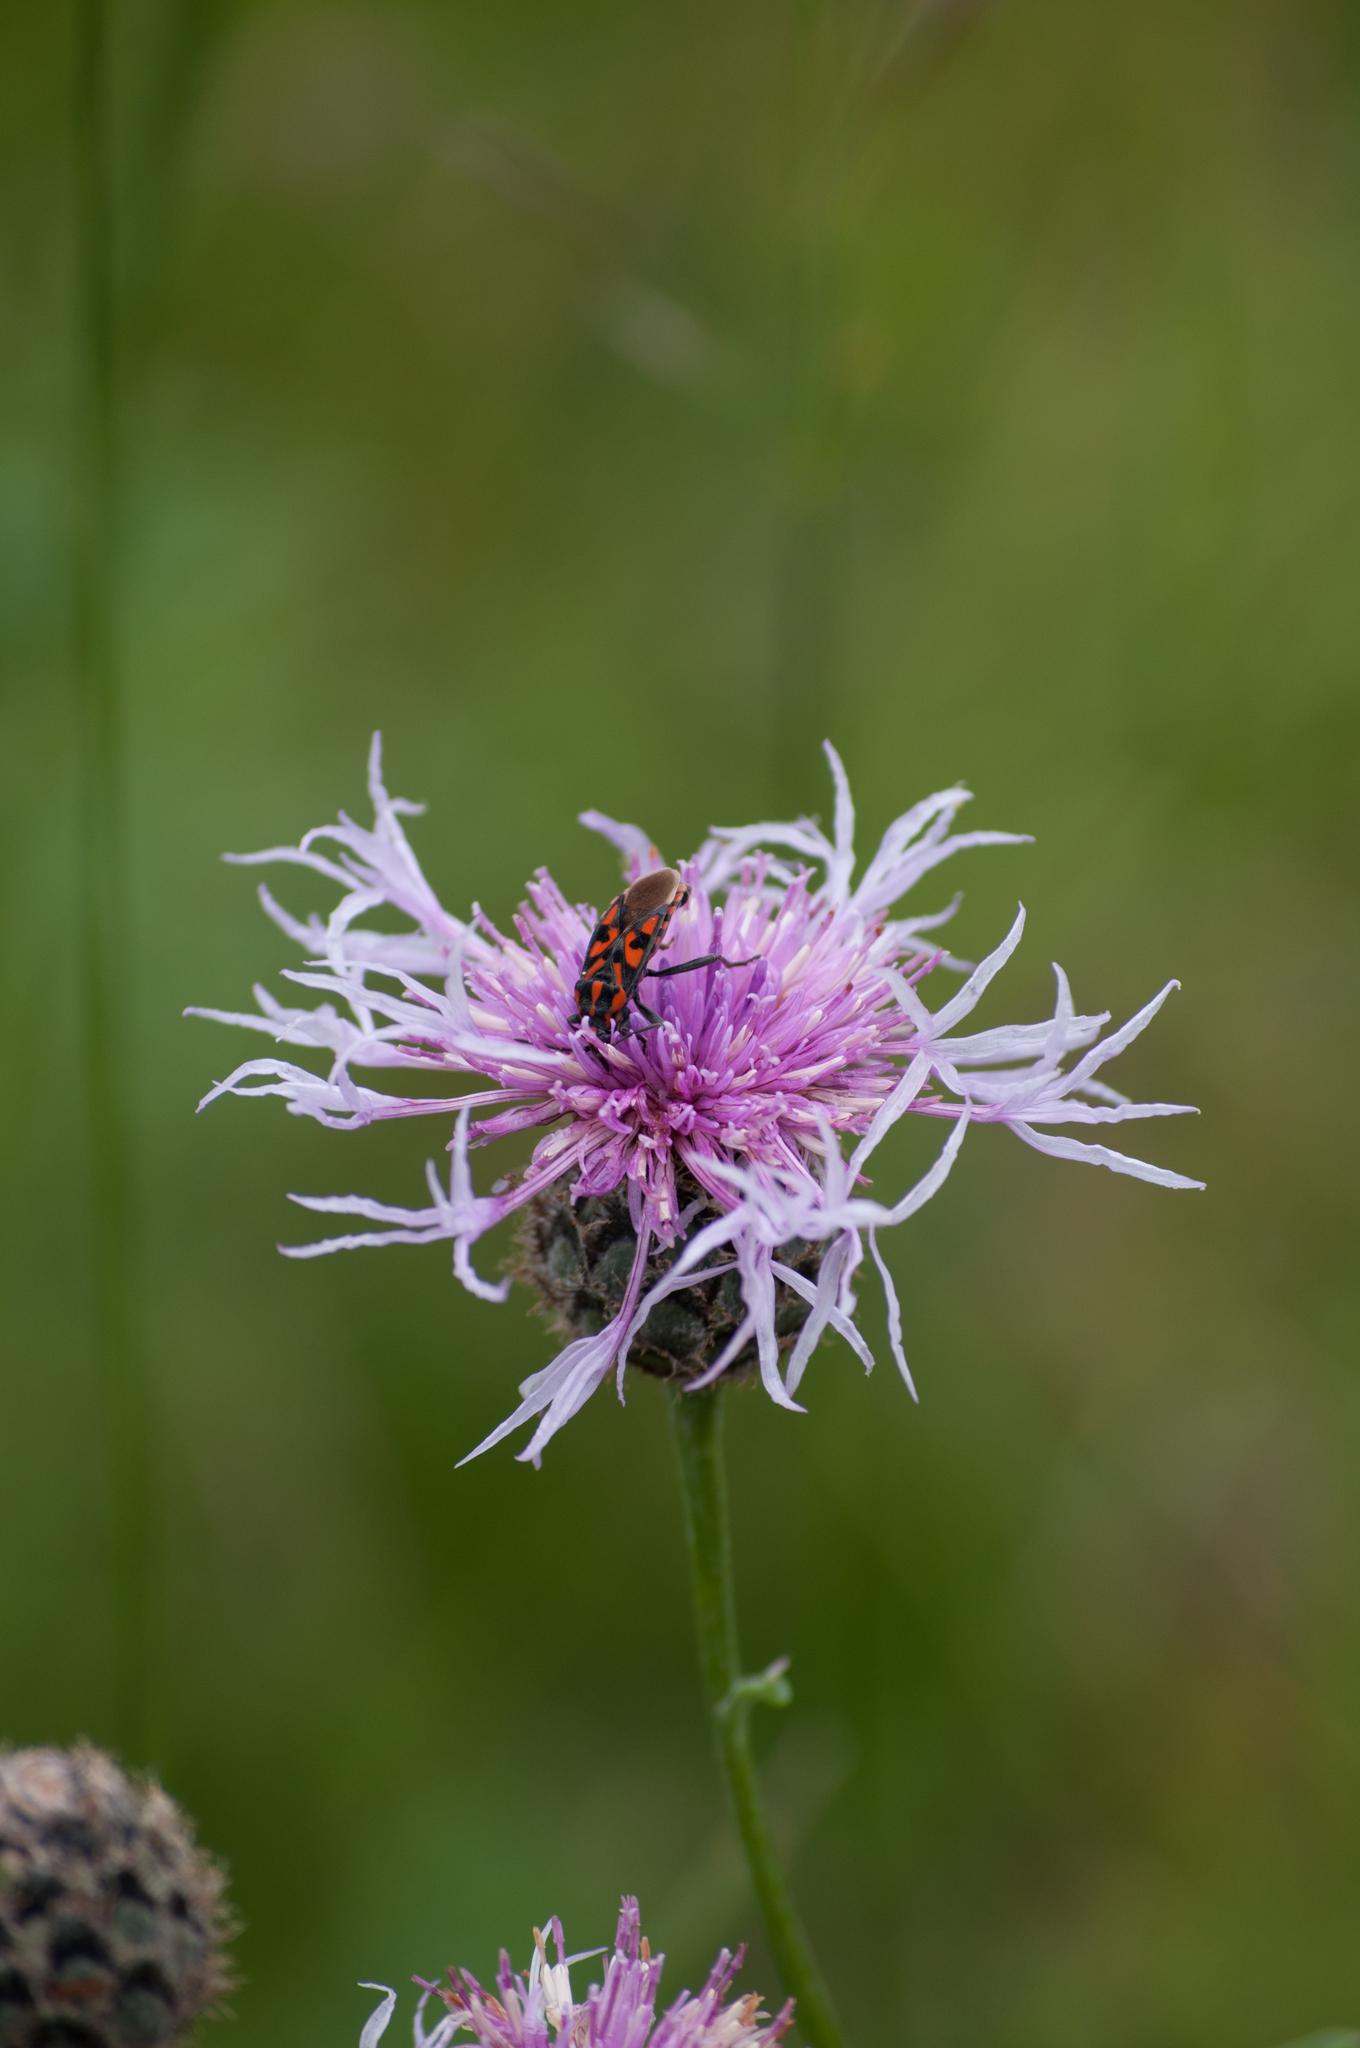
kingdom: Animalia
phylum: Arthropoda
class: Insecta
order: Hemiptera
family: Lygaeidae
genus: Spilostethus
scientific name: Spilostethus saxatilis
